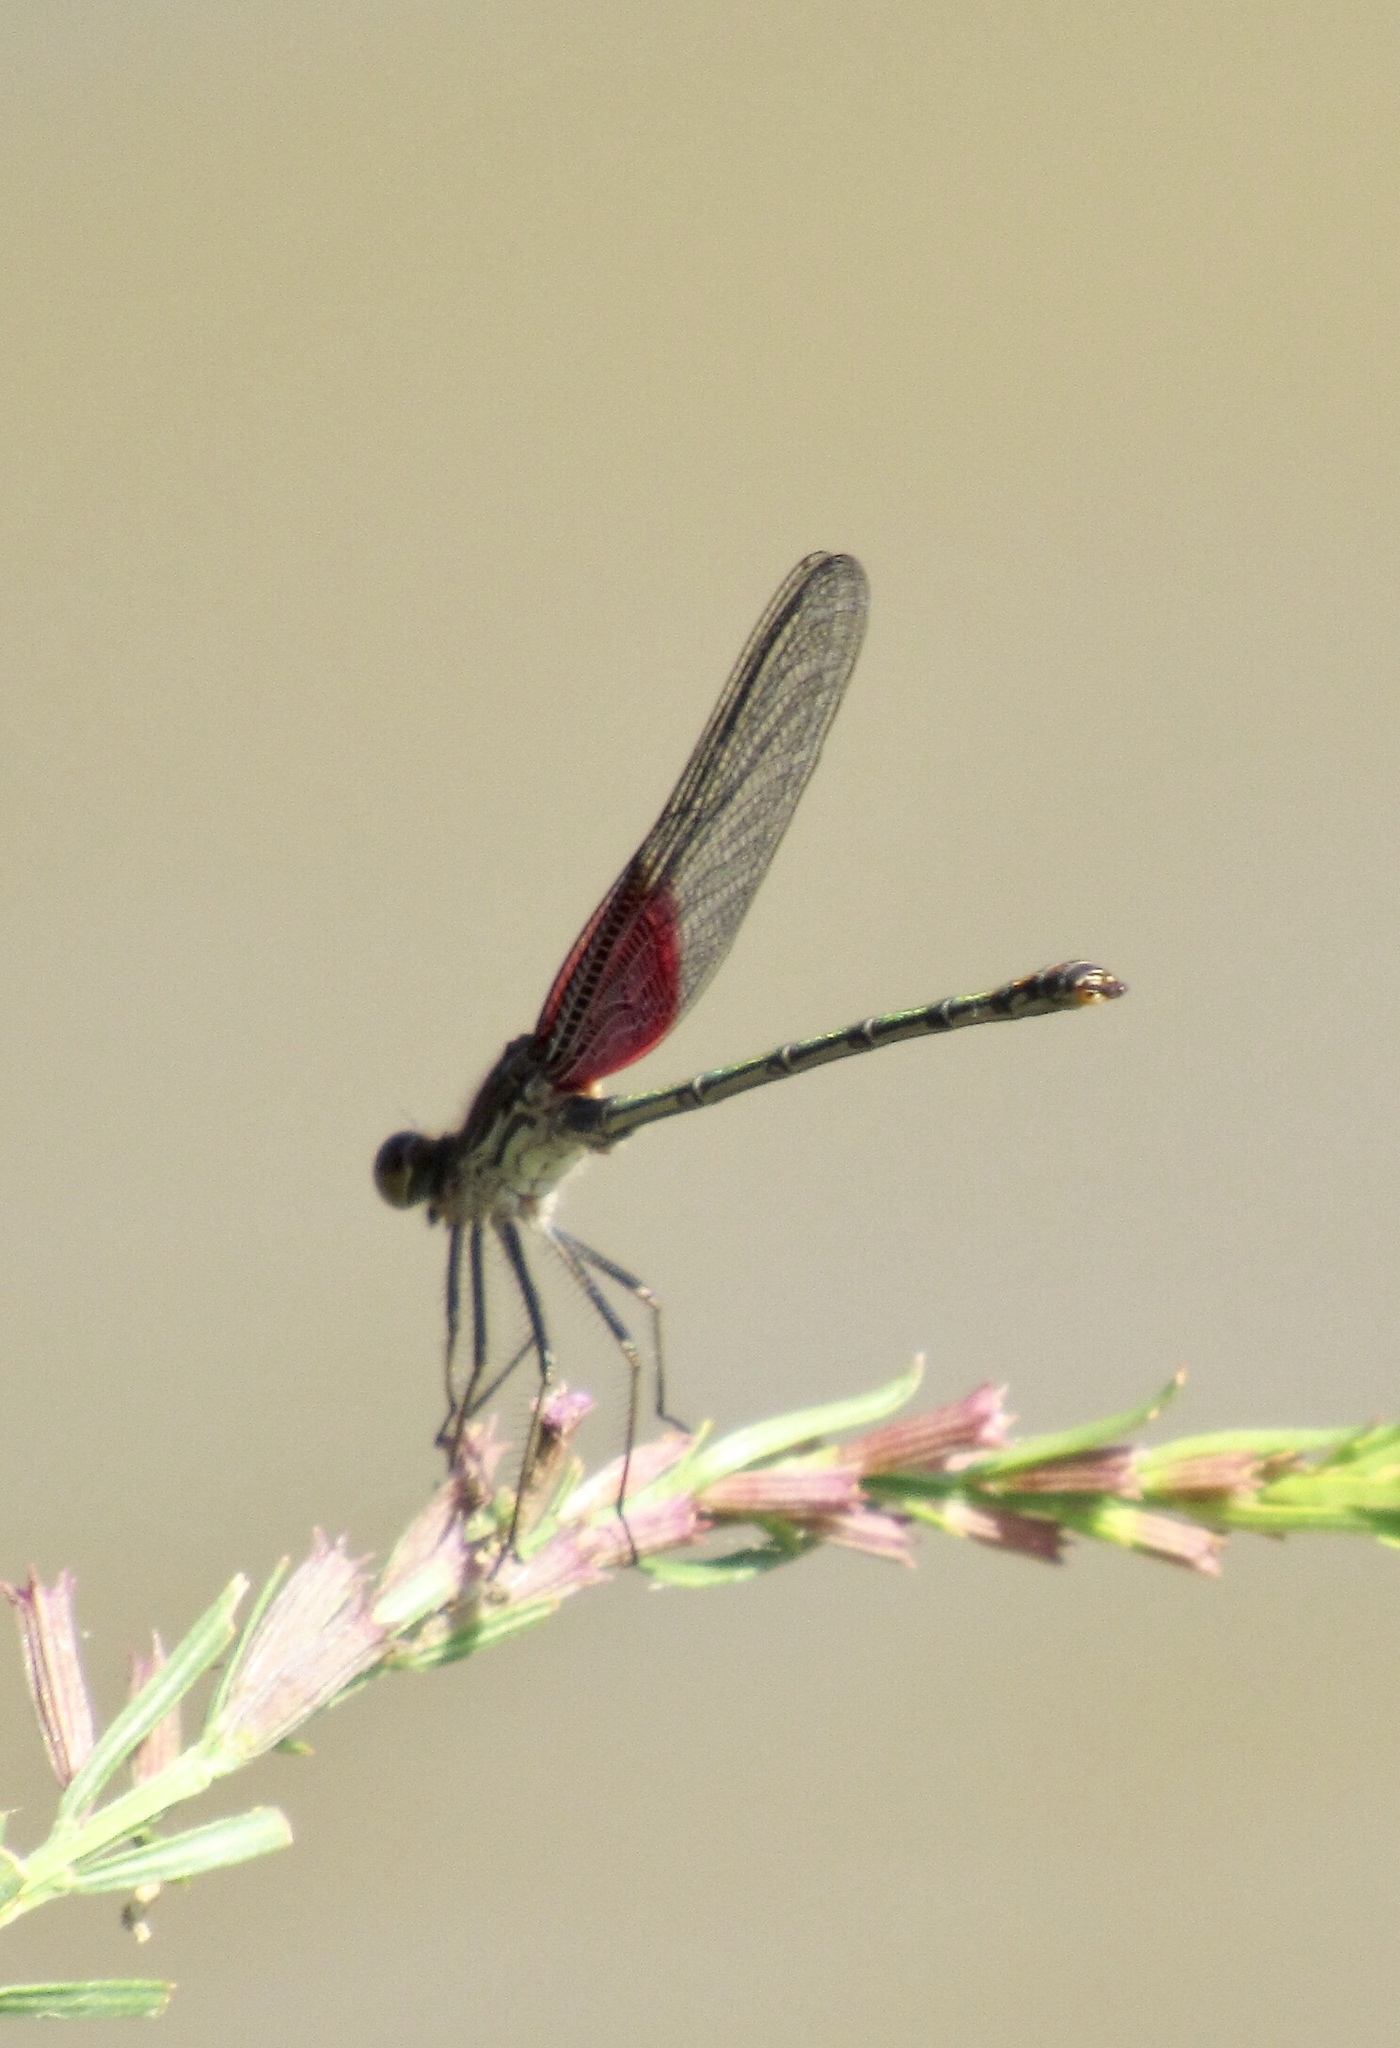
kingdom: Animalia
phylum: Arthropoda
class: Insecta
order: Odonata
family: Calopterygidae
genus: Hetaerina
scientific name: Hetaerina americana
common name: American rubyspot
